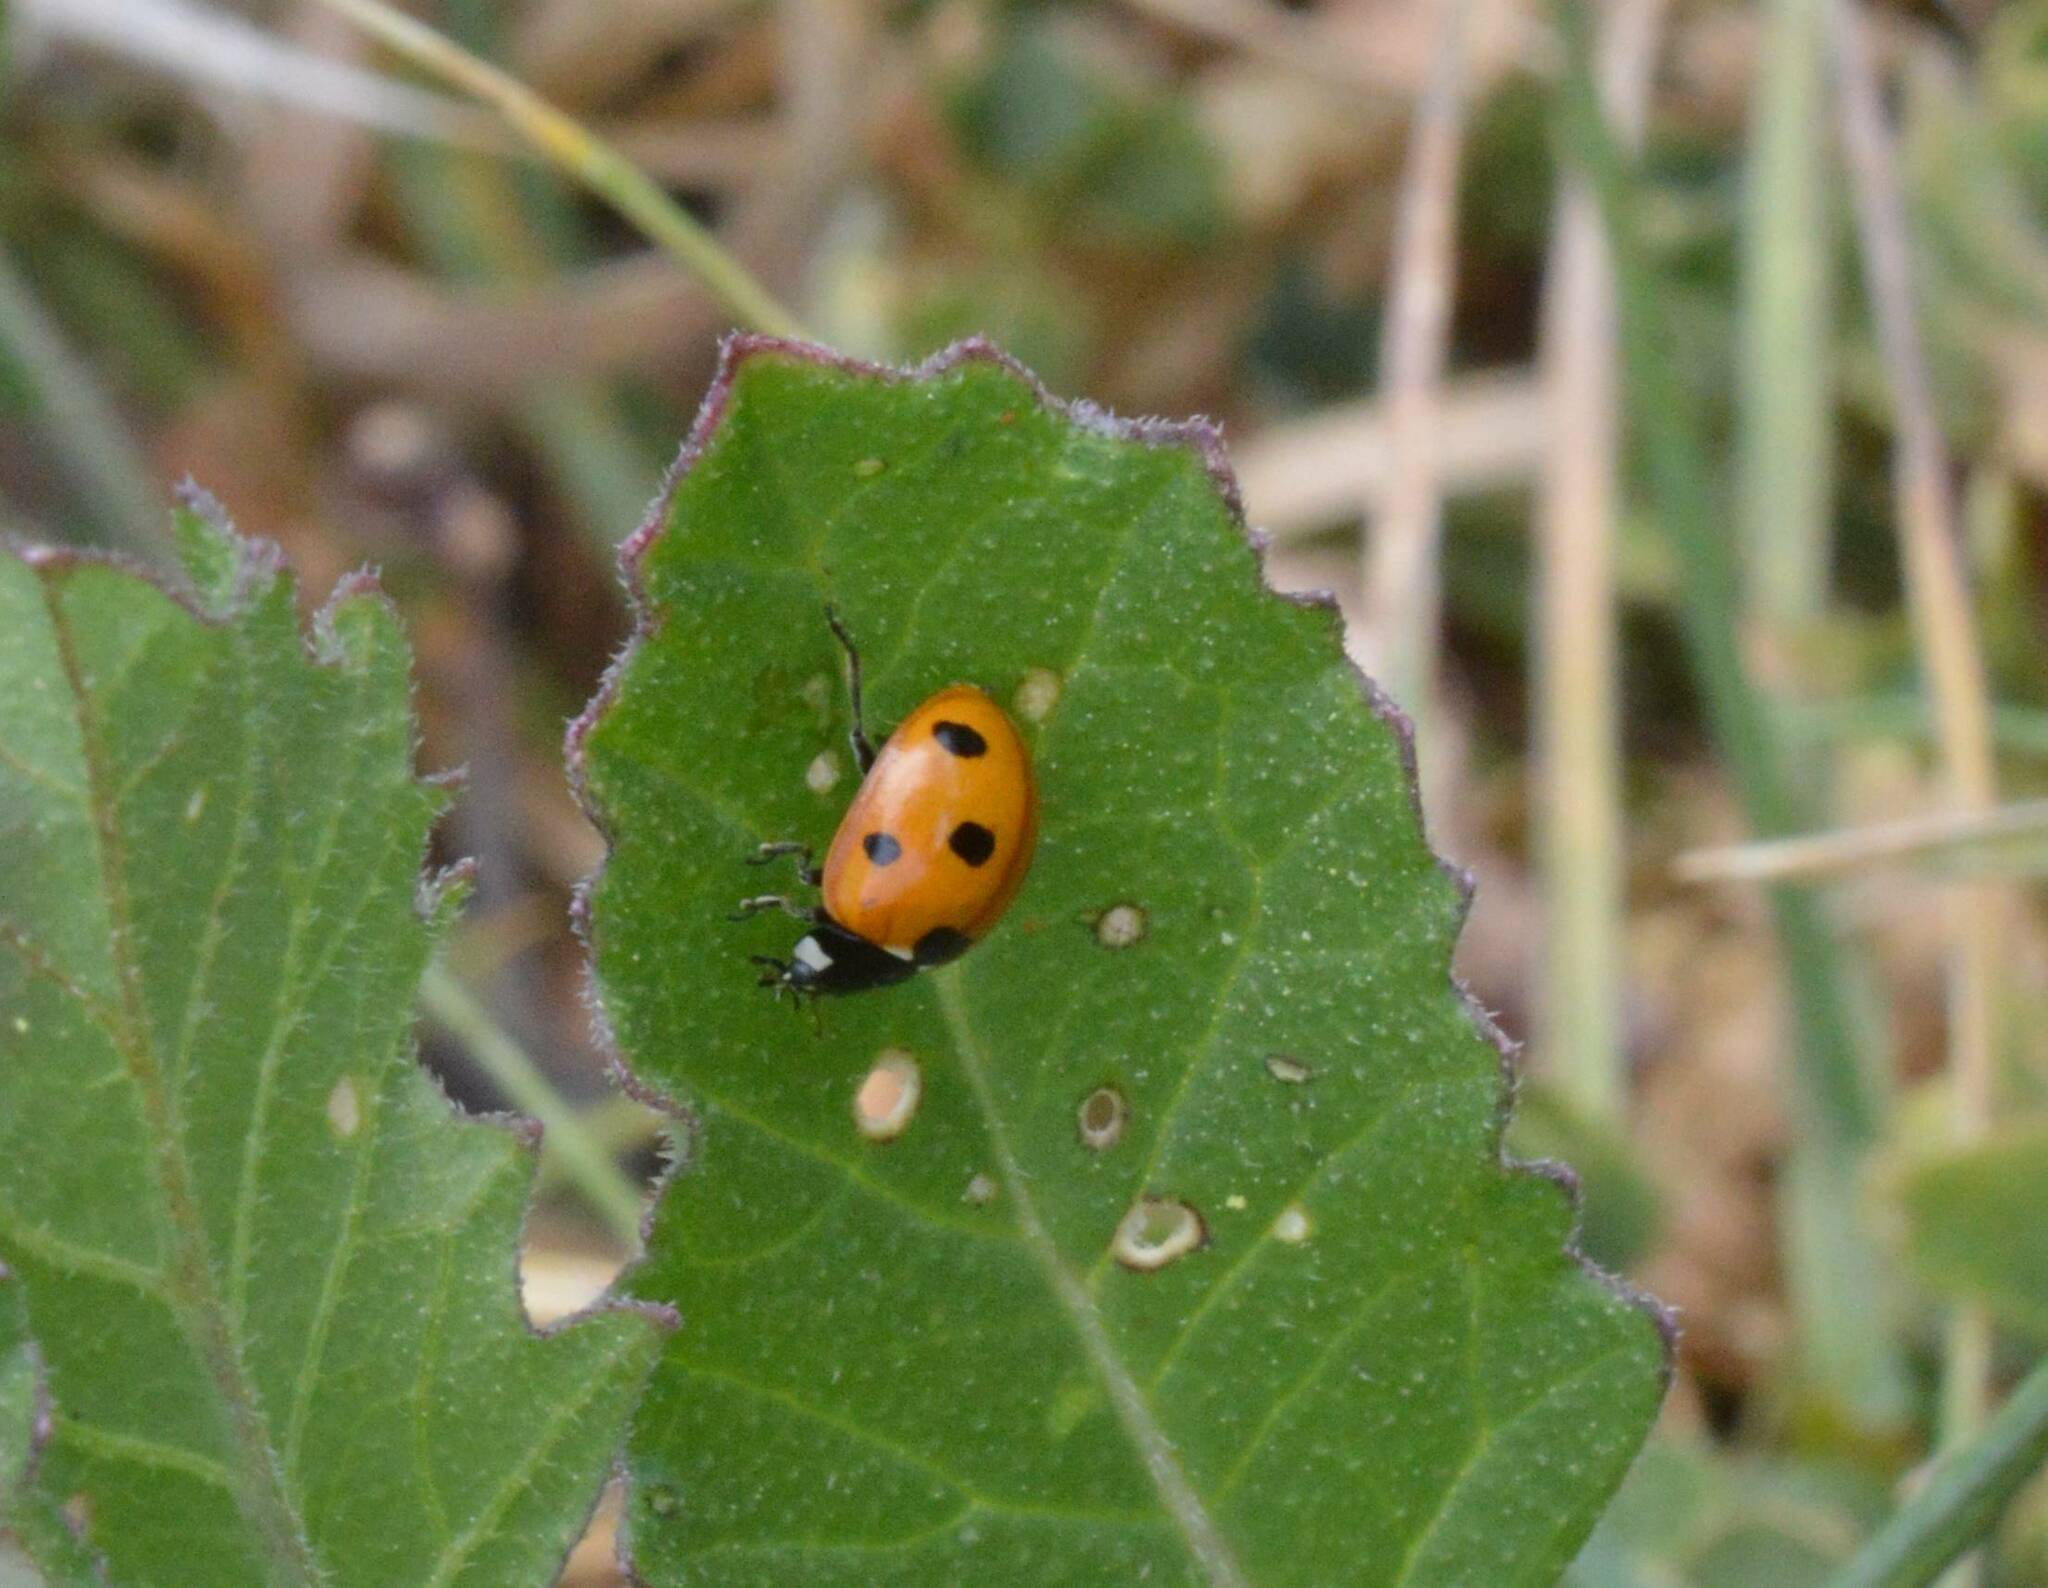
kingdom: Animalia
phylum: Arthropoda
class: Insecta
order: Coleoptera
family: Coccinellidae
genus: Coccinella
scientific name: Coccinella algerica
